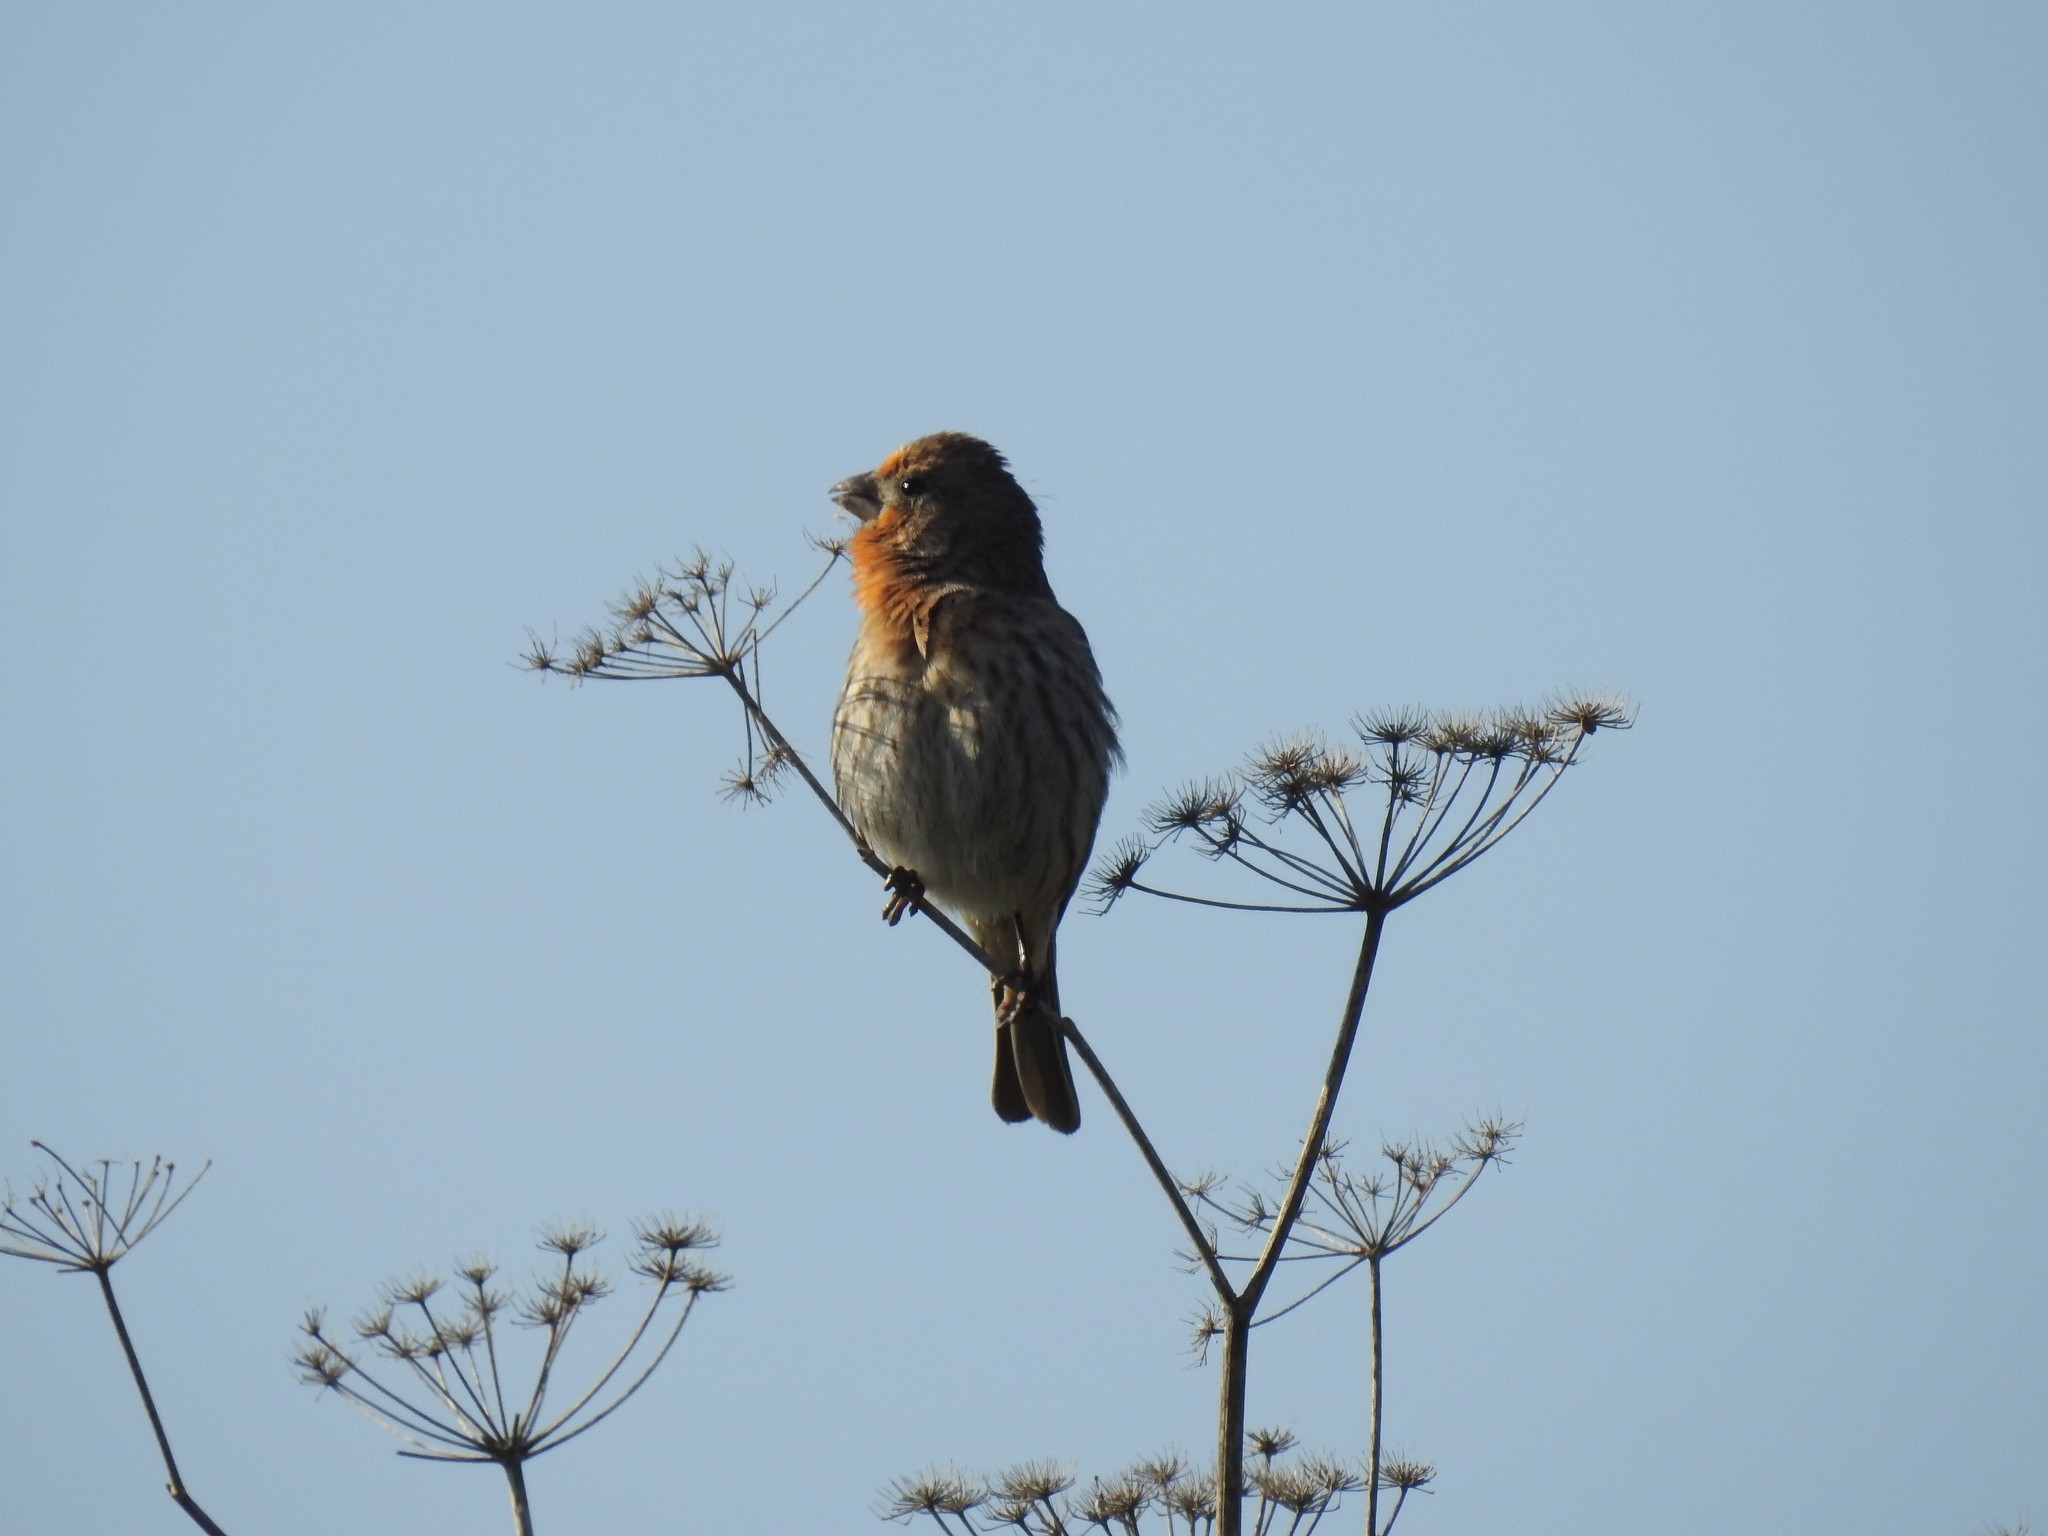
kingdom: Animalia
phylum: Chordata
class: Aves
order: Passeriformes
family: Fringillidae
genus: Haemorhous
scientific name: Haemorhous mexicanus
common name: House finch
